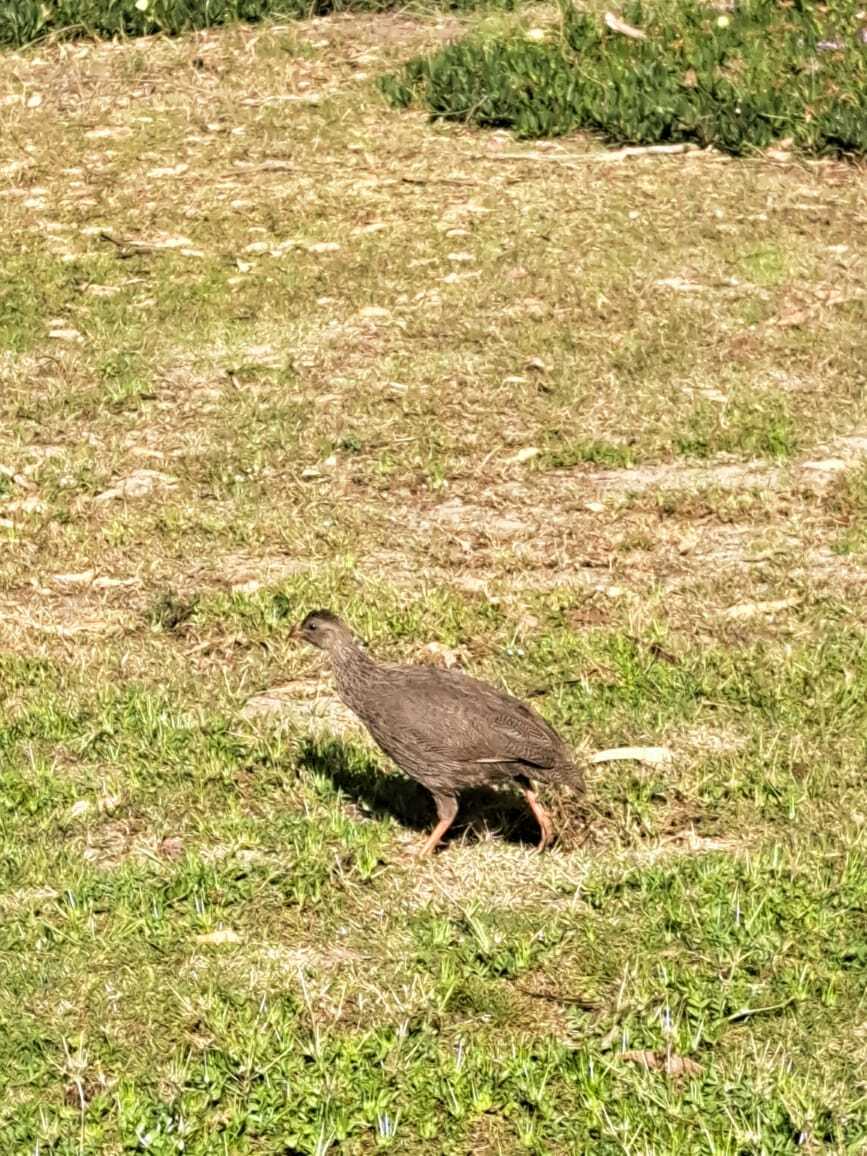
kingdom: Animalia
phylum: Chordata
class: Aves
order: Galliformes
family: Phasianidae
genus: Pternistis
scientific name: Pternistis capensis
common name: Cape spurfowl
